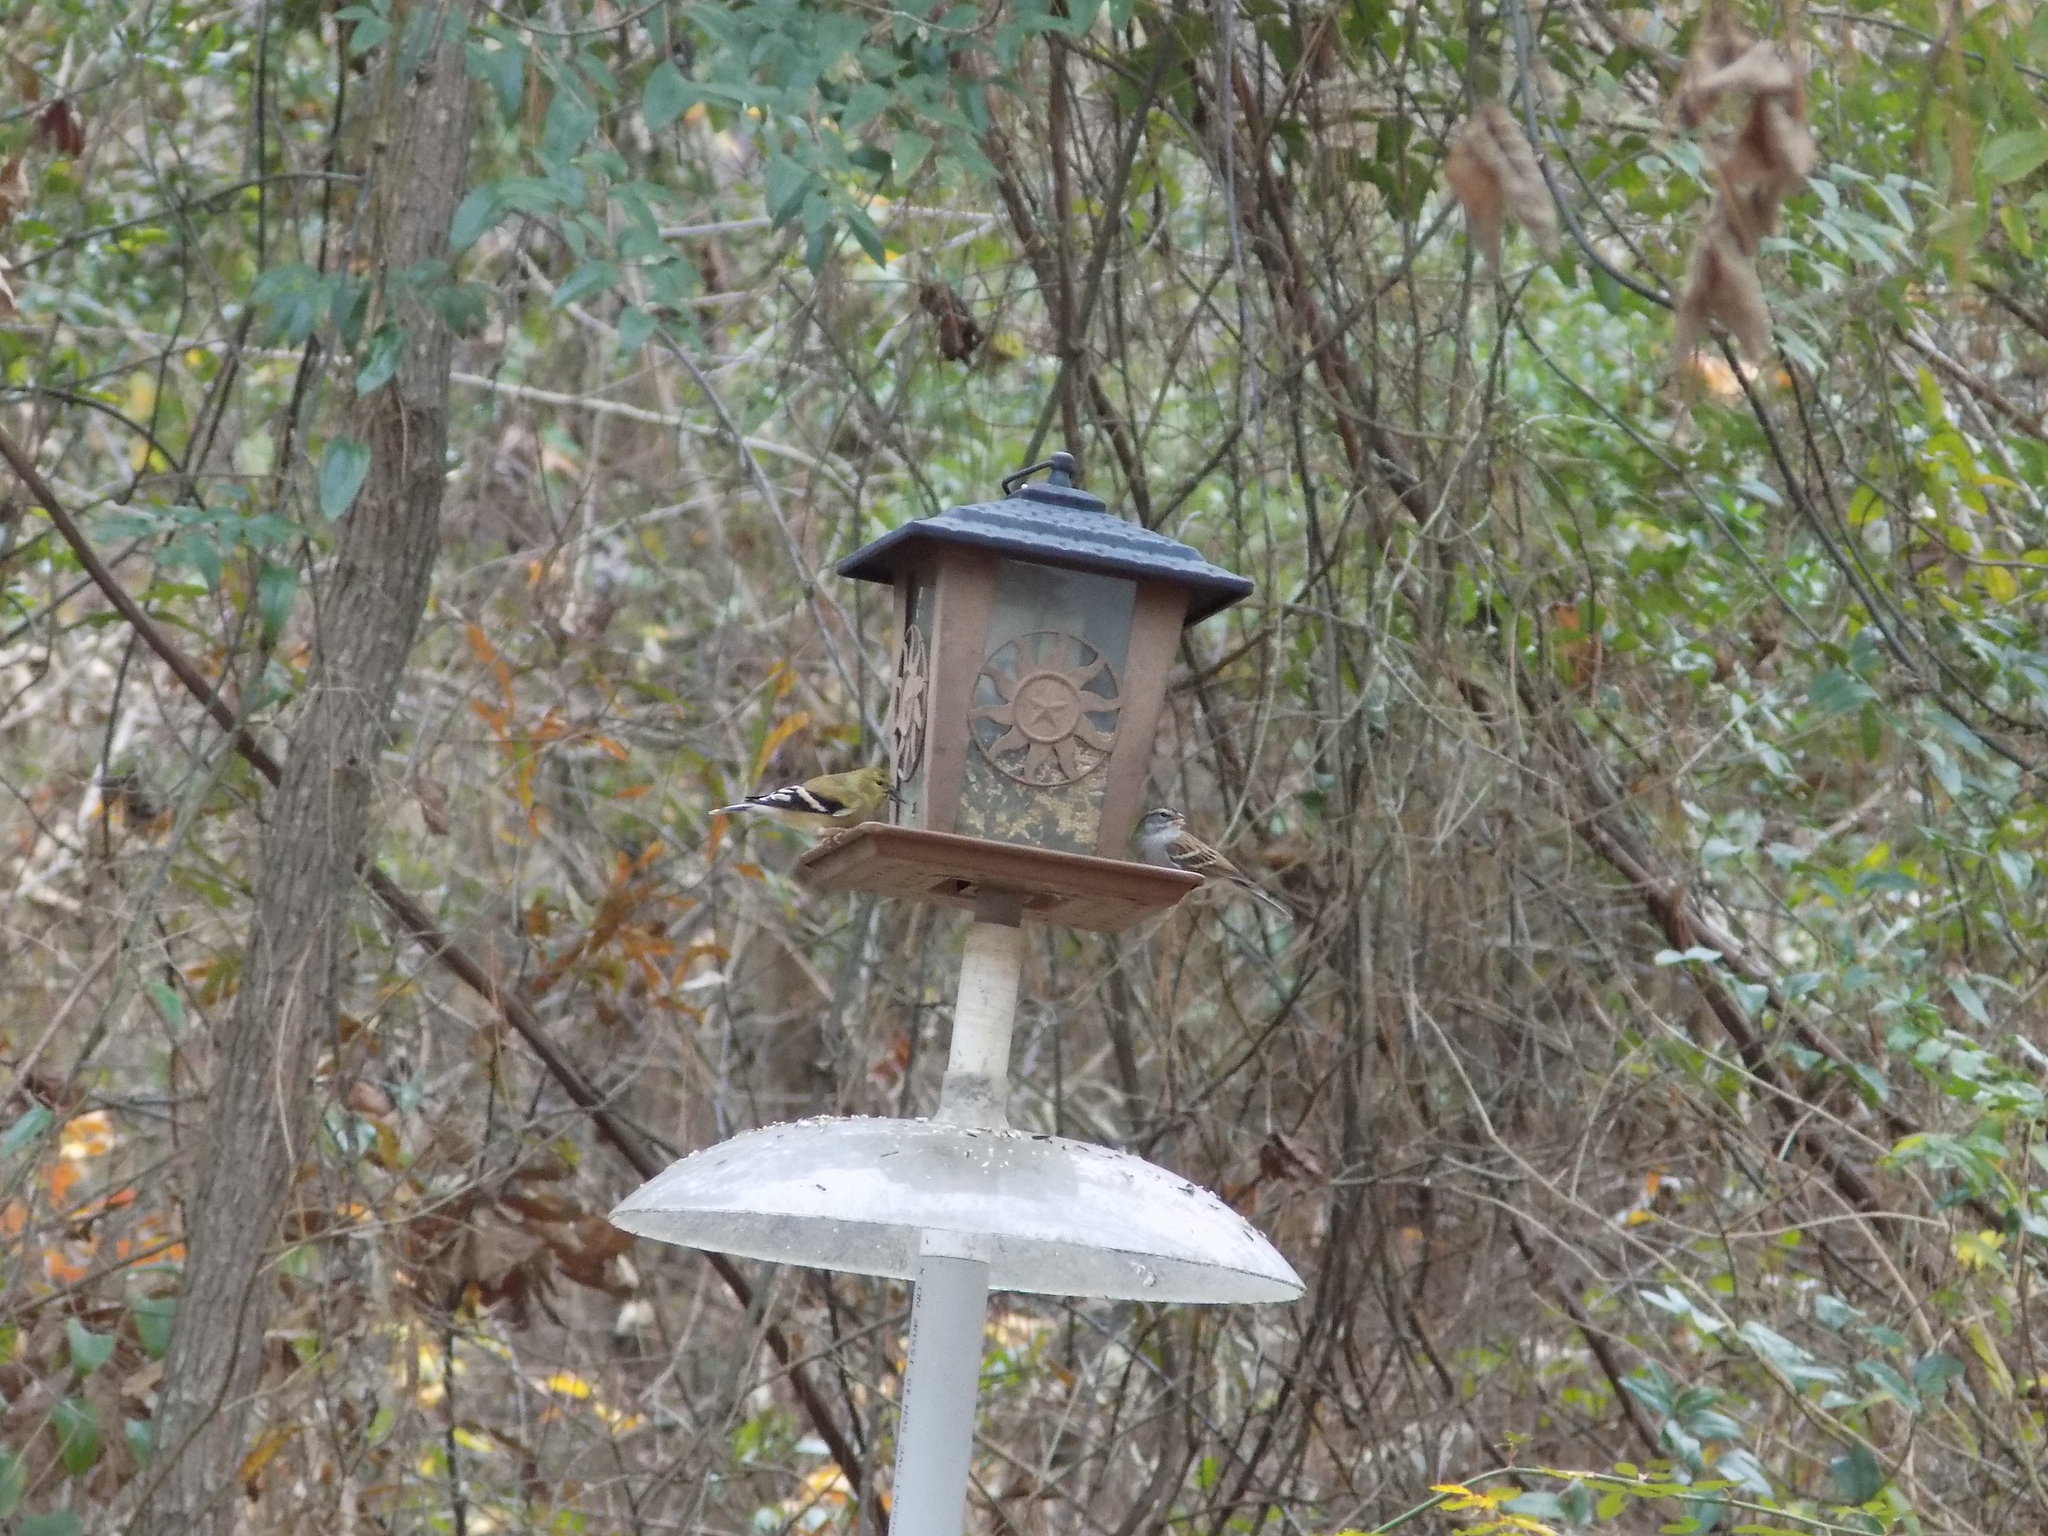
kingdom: Animalia
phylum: Chordata
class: Aves
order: Passeriformes
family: Fringillidae
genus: Spinus
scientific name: Spinus tristis
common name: American goldfinch
